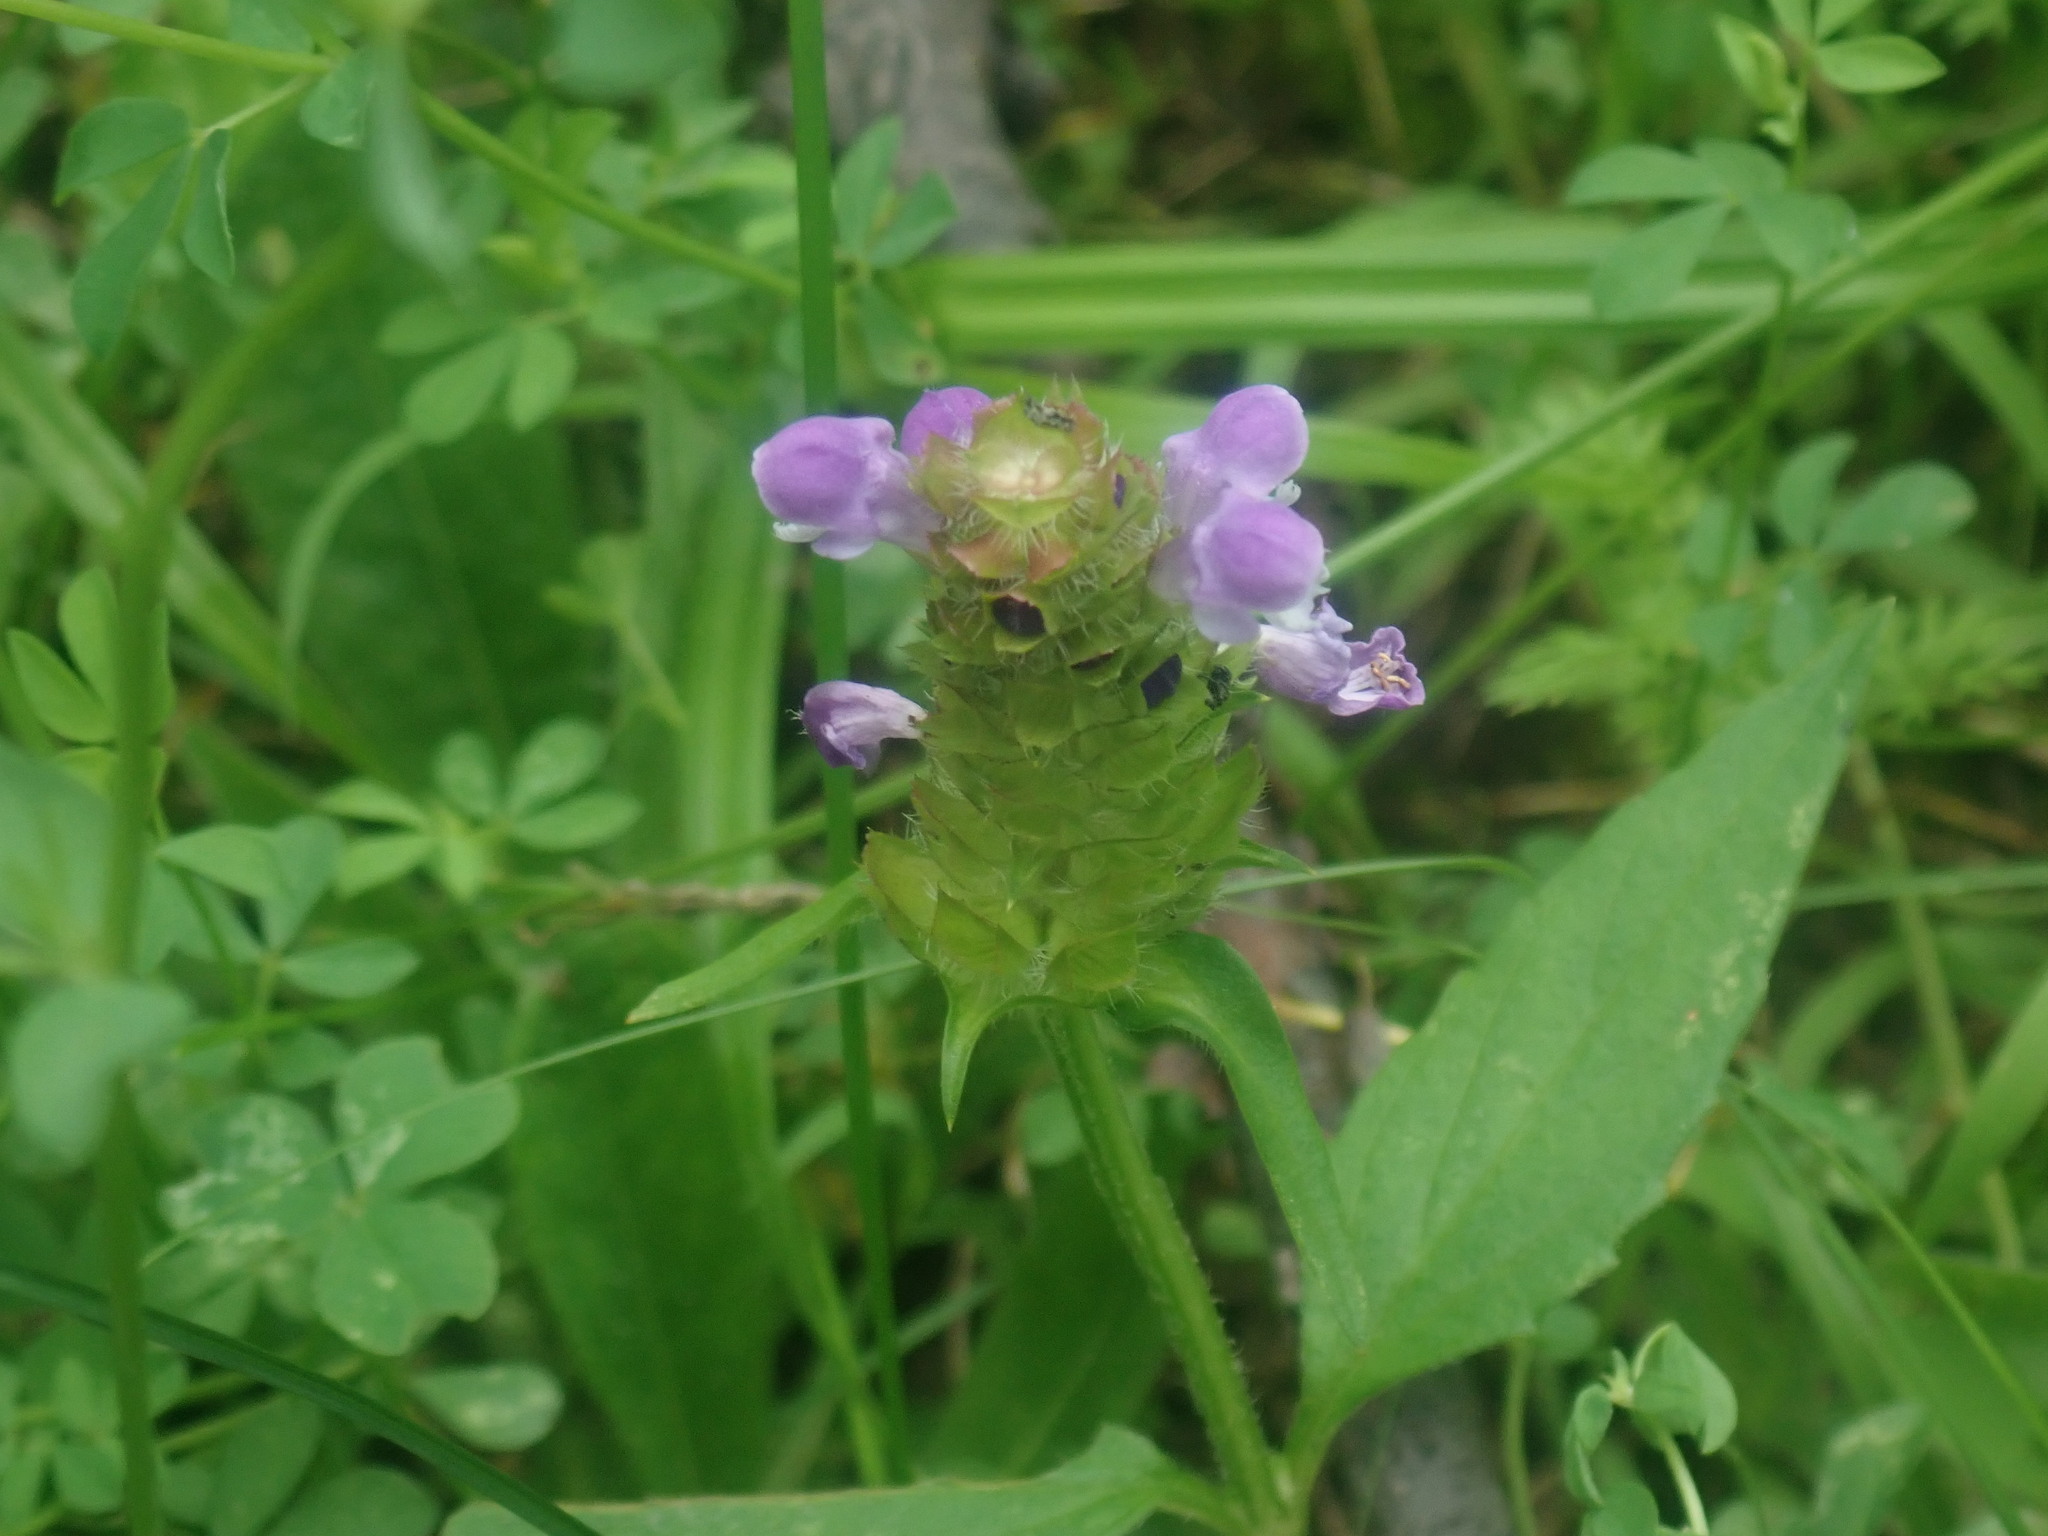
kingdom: Plantae
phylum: Tracheophyta
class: Magnoliopsida
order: Lamiales
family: Lamiaceae
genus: Prunella
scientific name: Prunella vulgaris
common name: Heal-all
